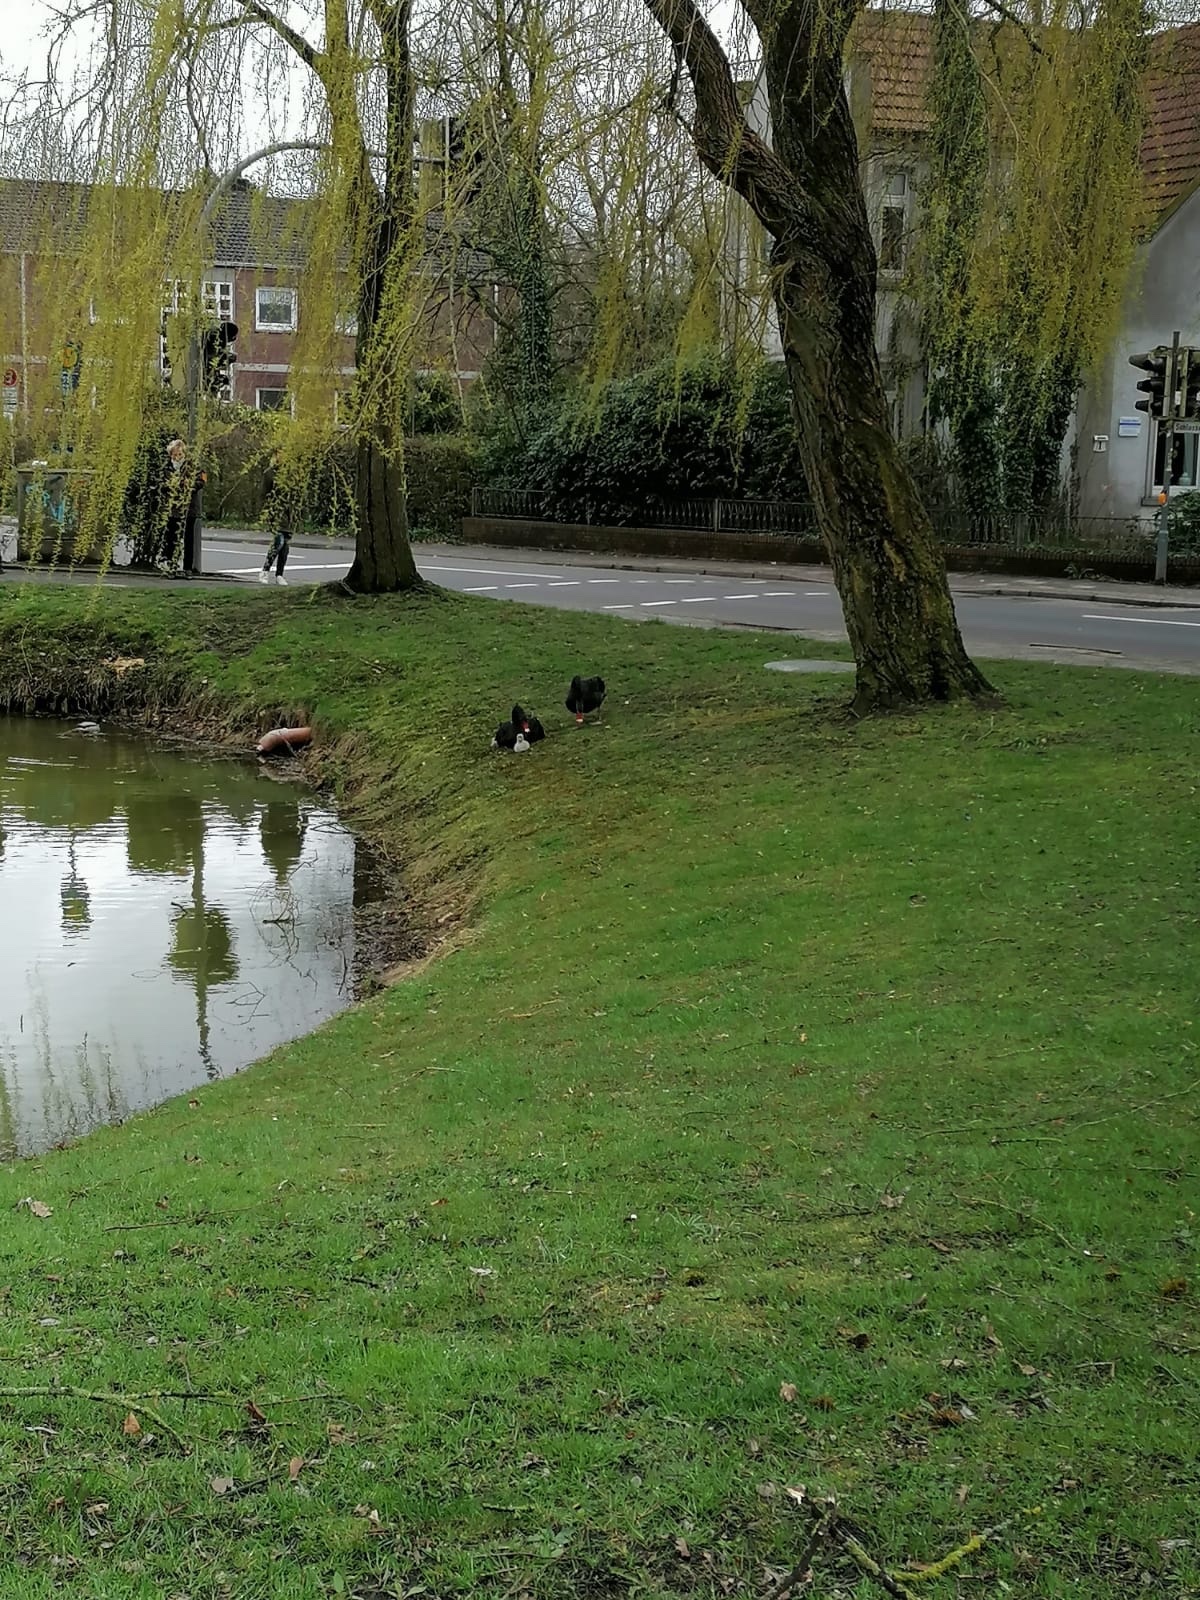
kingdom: Animalia
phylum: Chordata
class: Aves
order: Anseriformes
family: Anatidae
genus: Cygnus
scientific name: Cygnus atratus
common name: Black swan
